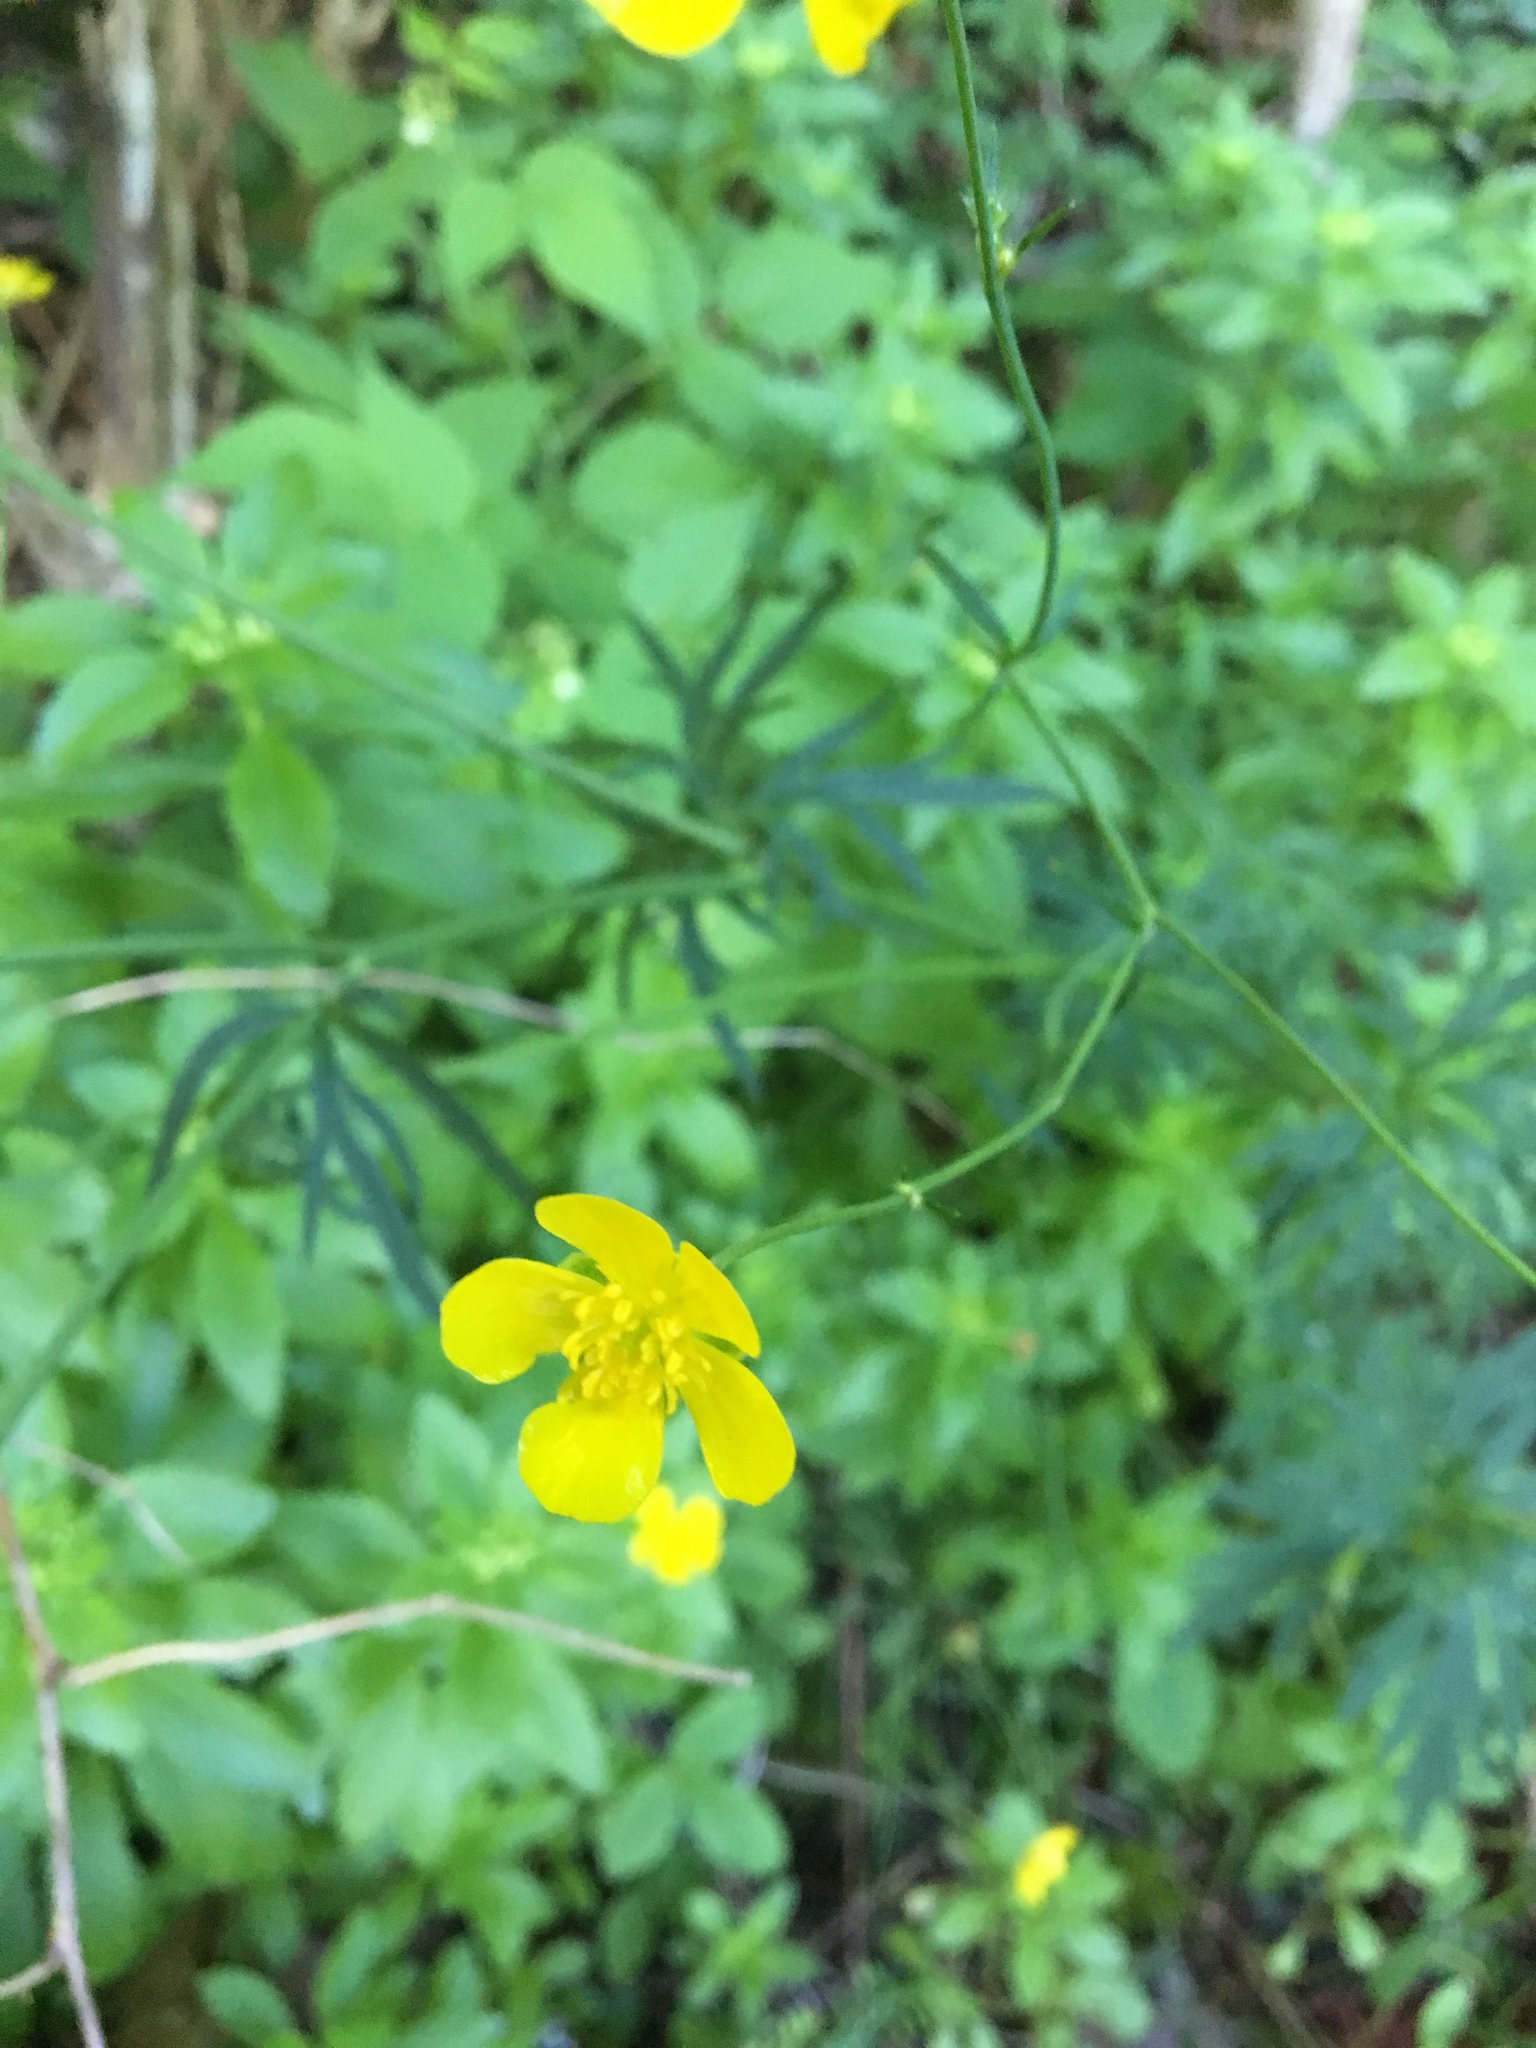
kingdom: Plantae
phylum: Tracheophyta
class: Magnoliopsida
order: Ranunculales
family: Ranunculaceae
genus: Ranunculus
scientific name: Ranunculus acris
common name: Meadow buttercup
